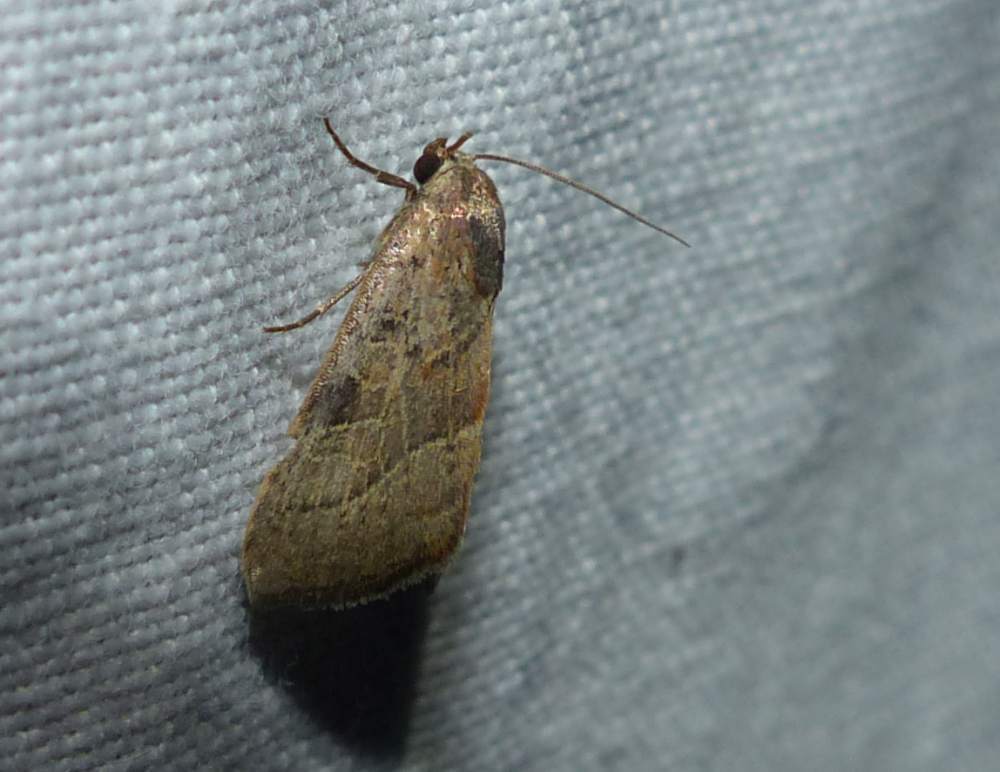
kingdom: Animalia
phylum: Arthropoda
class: Insecta
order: Lepidoptera
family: Noctuidae
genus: Galgula
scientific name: Galgula partita
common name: Wedgeling
